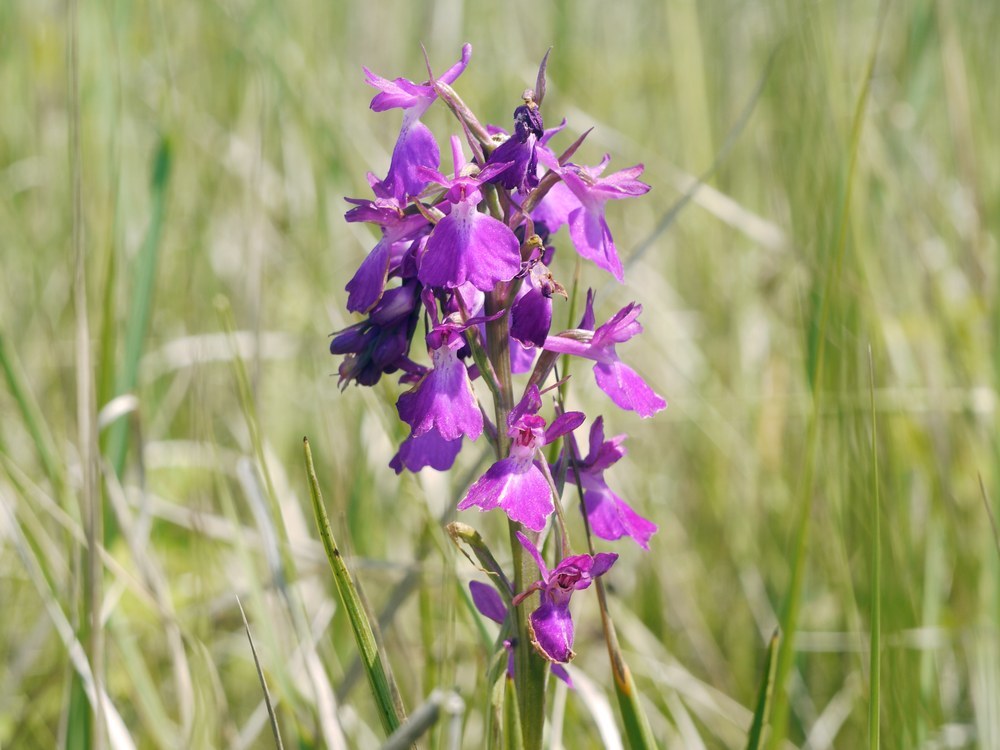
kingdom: Plantae
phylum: Tracheophyta
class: Liliopsida
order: Asparagales
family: Orchidaceae
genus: Anacamptis
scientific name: Anacamptis palustris
